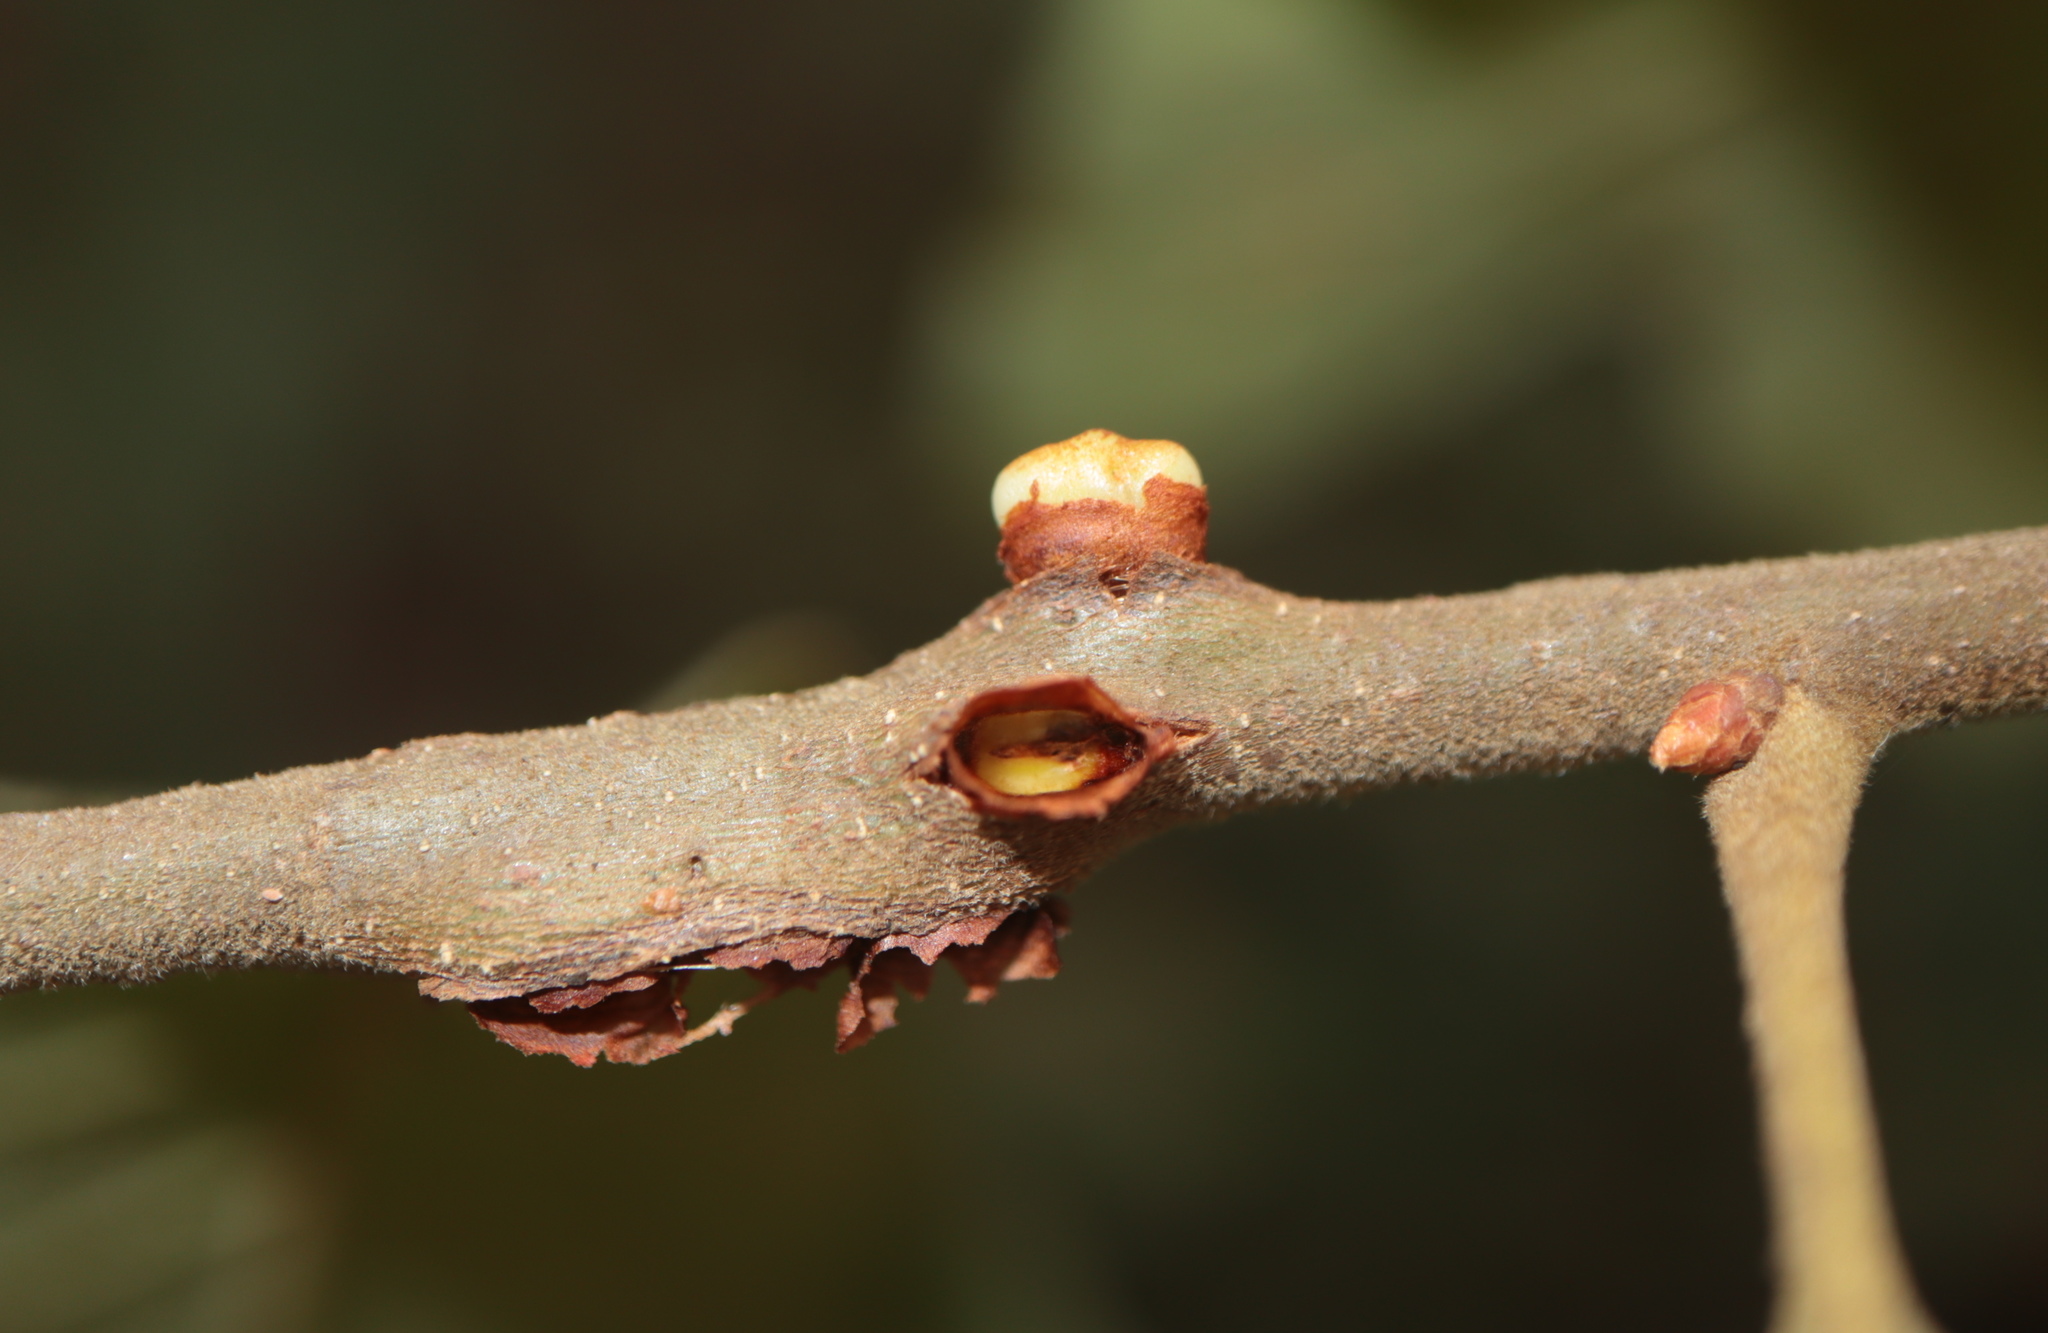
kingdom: Animalia
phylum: Arthropoda
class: Insecta
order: Hymenoptera
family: Cynipidae
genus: Callirhytis
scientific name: Callirhytis
